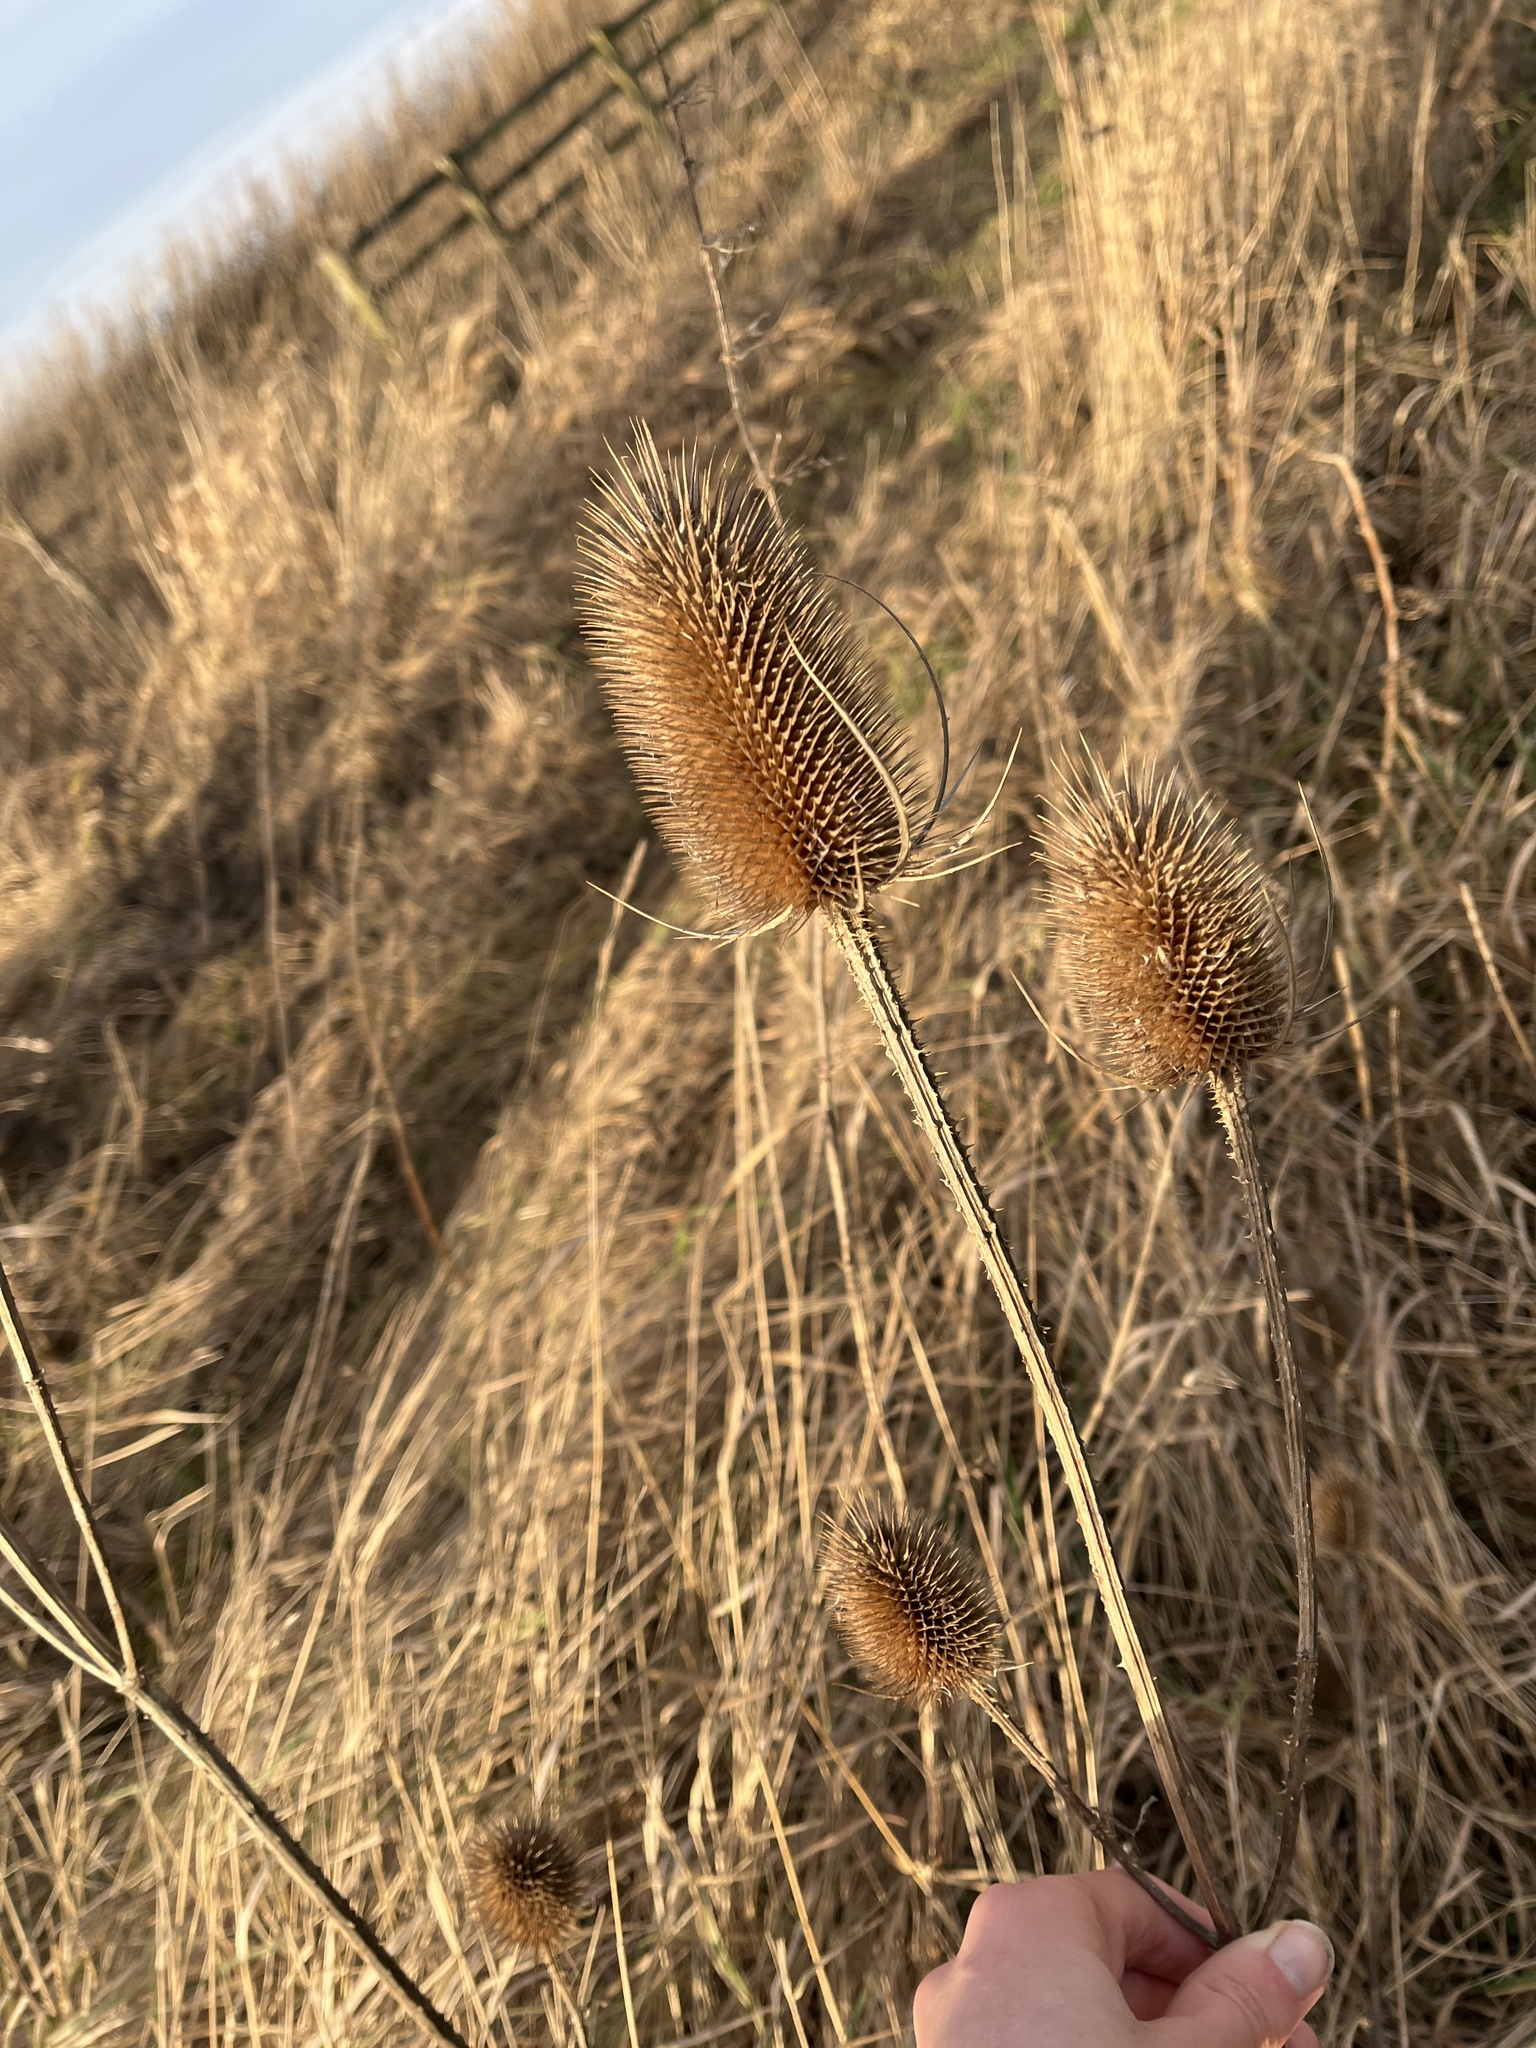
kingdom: Plantae
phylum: Tracheophyta
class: Magnoliopsida
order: Dipsacales
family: Caprifoliaceae
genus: Dipsacus
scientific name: Dipsacus fullonum
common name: Teasel
